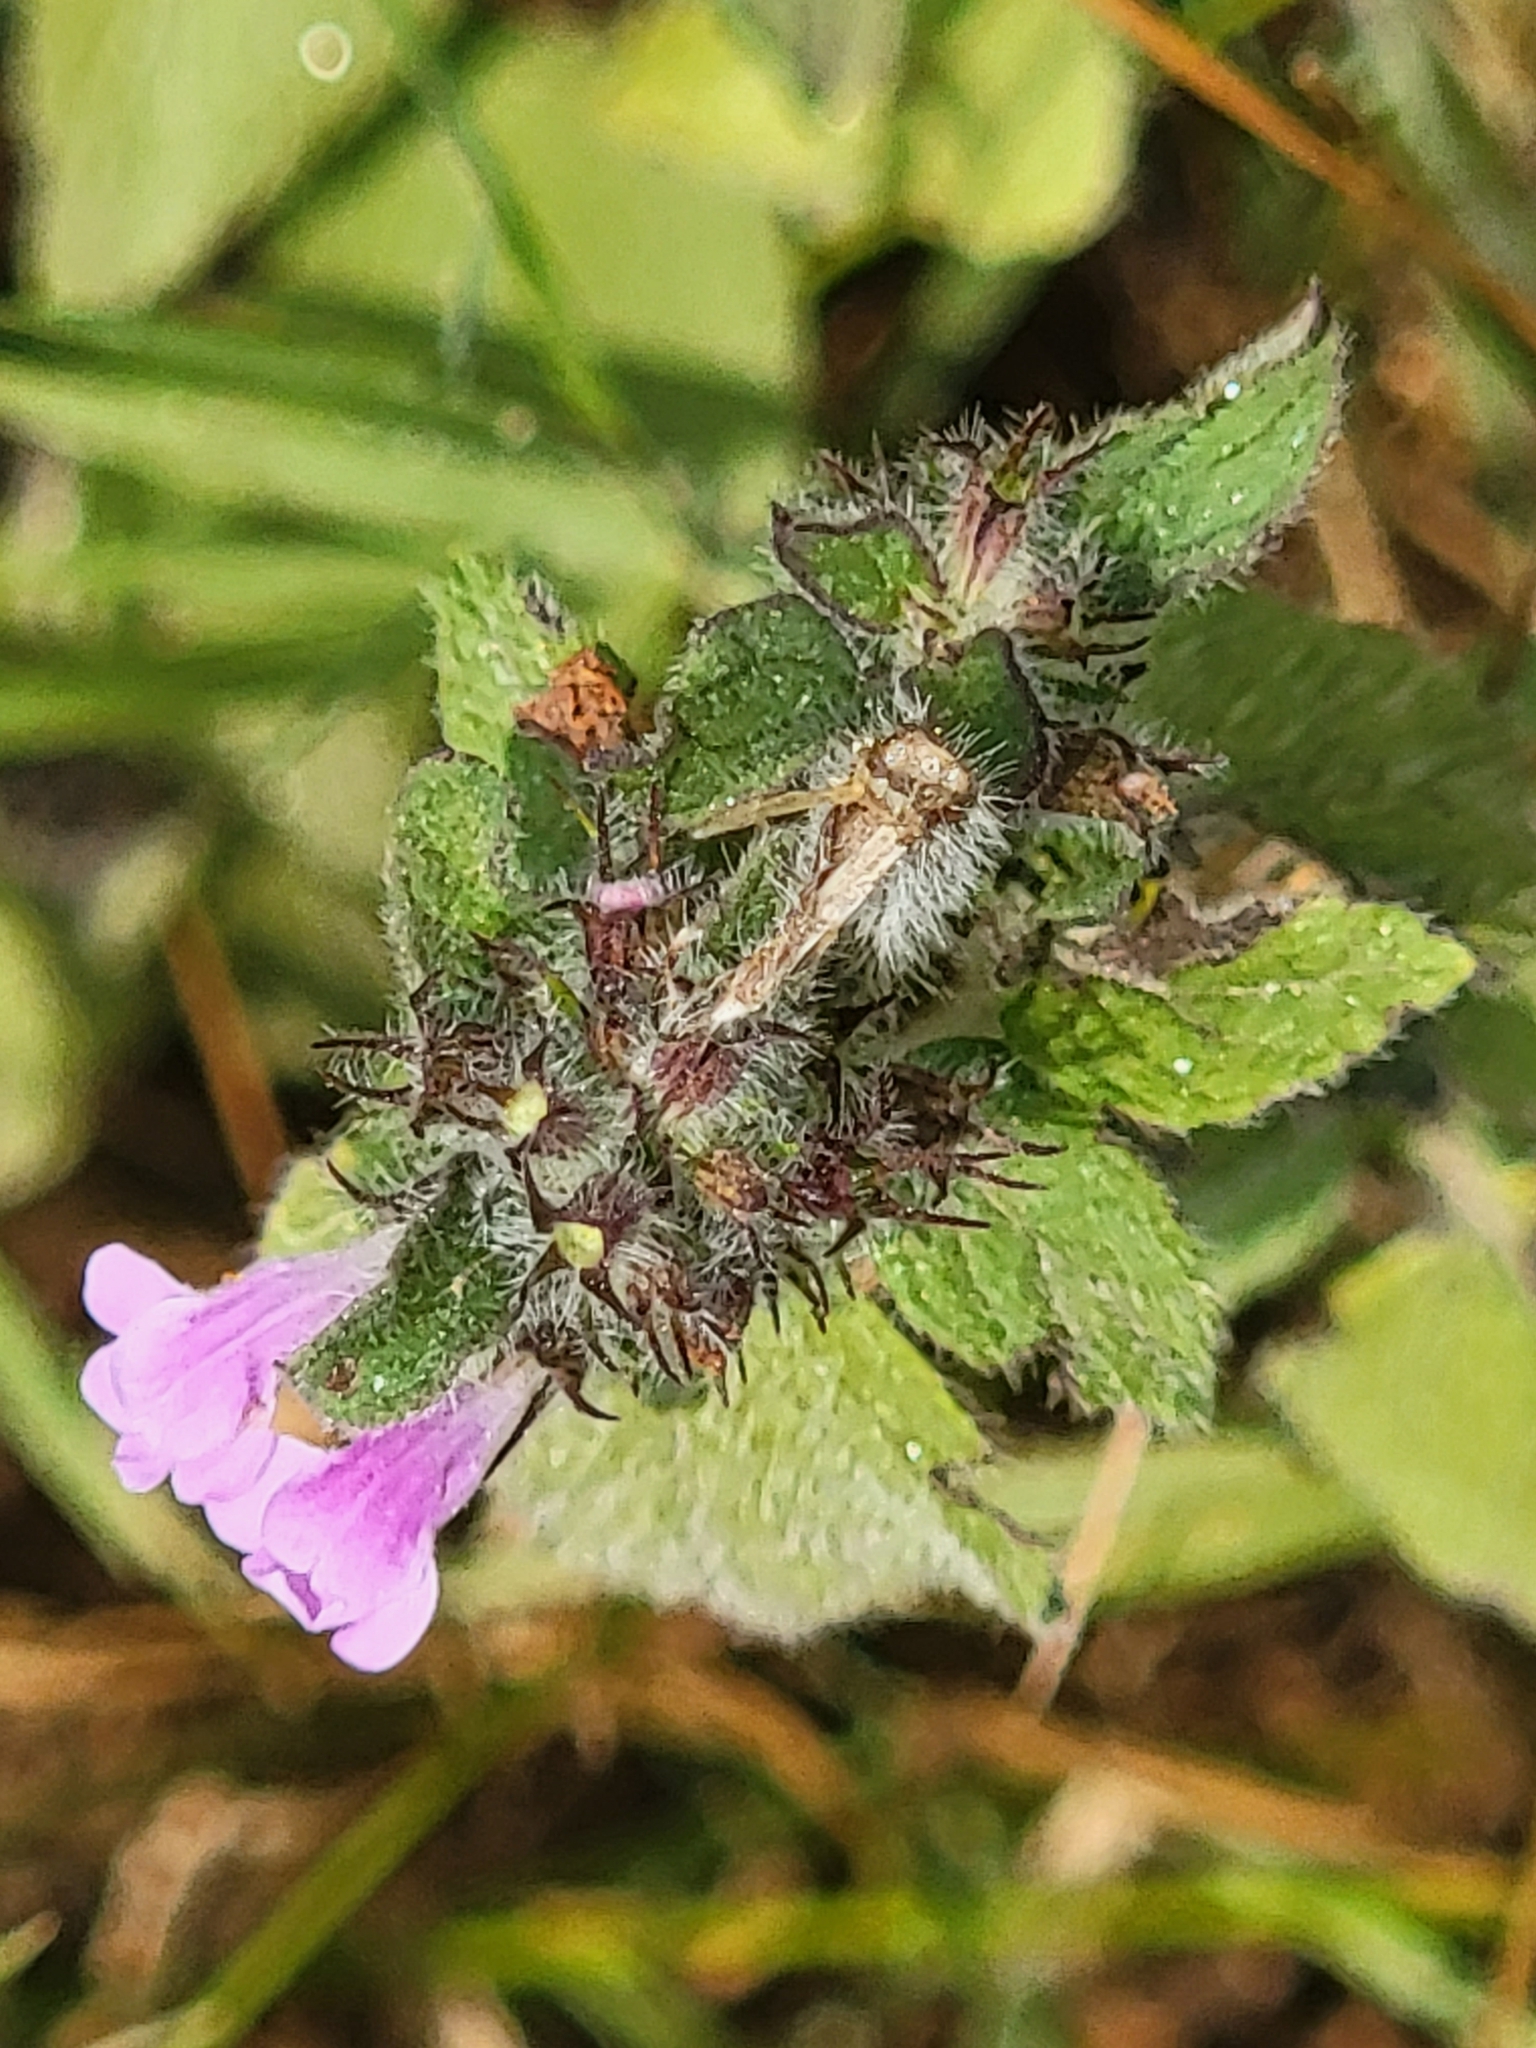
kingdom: Plantae
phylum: Tracheophyta
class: Magnoliopsida
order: Lamiales
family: Lamiaceae
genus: Clinopodium
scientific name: Clinopodium vulgare
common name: Wild basil
